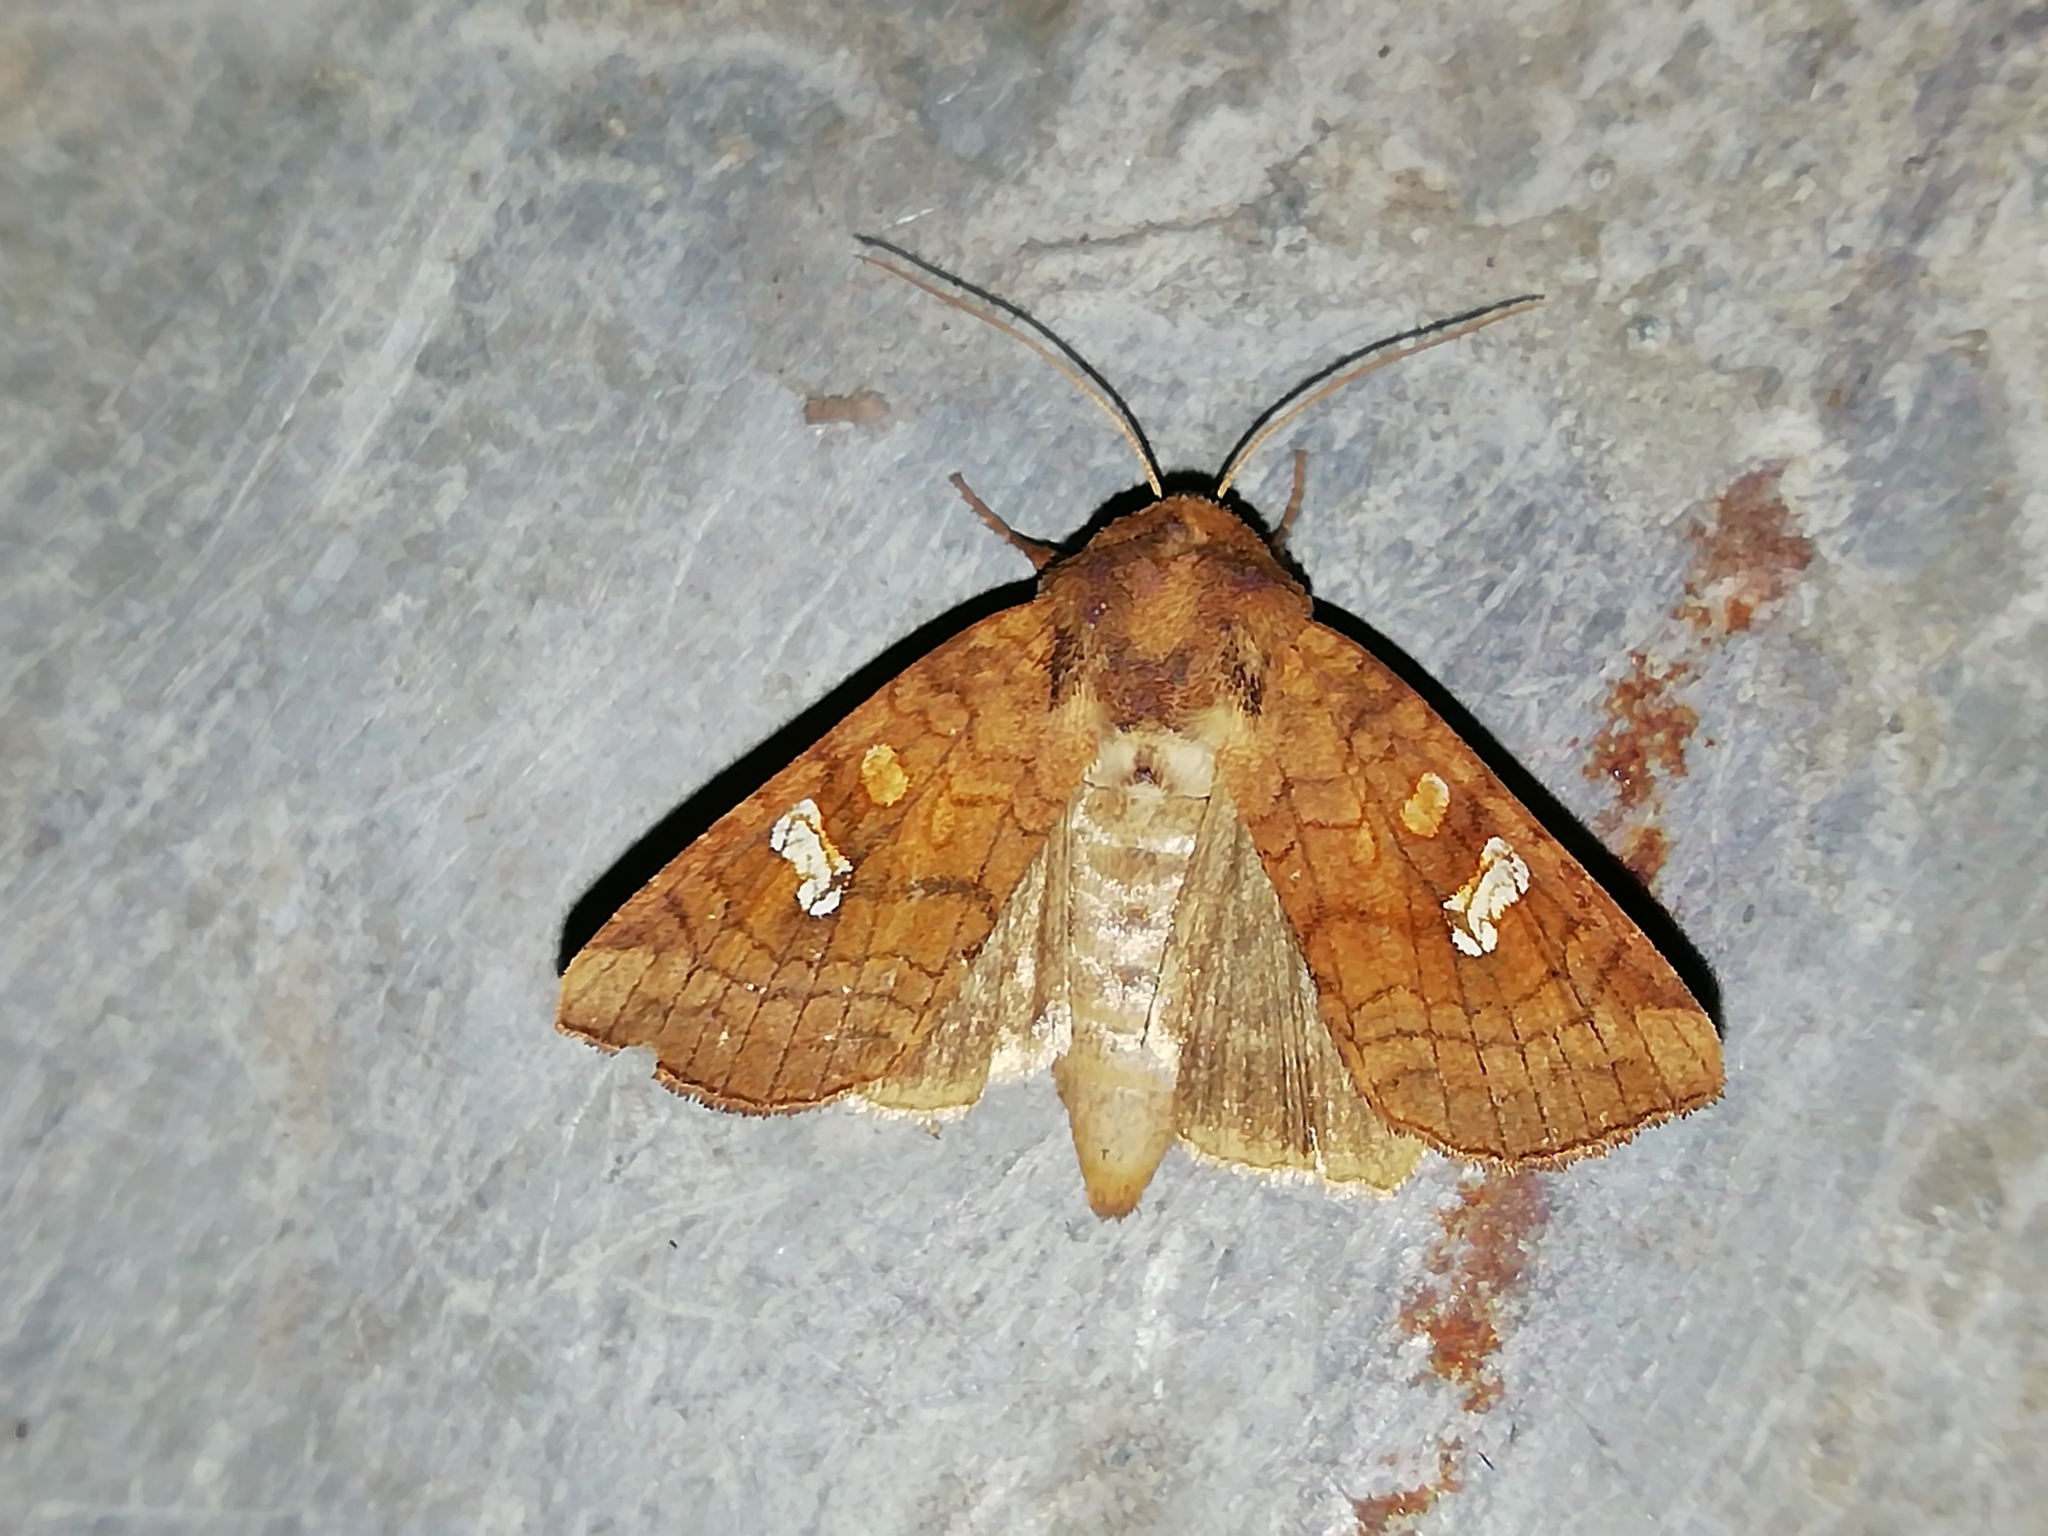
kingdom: Animalia
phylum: Arthropoda
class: Insecta
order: Lepidoptera
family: Noctuidae
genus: Amphipoea
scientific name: Amphipoea crinanensis
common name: Crinan ear
